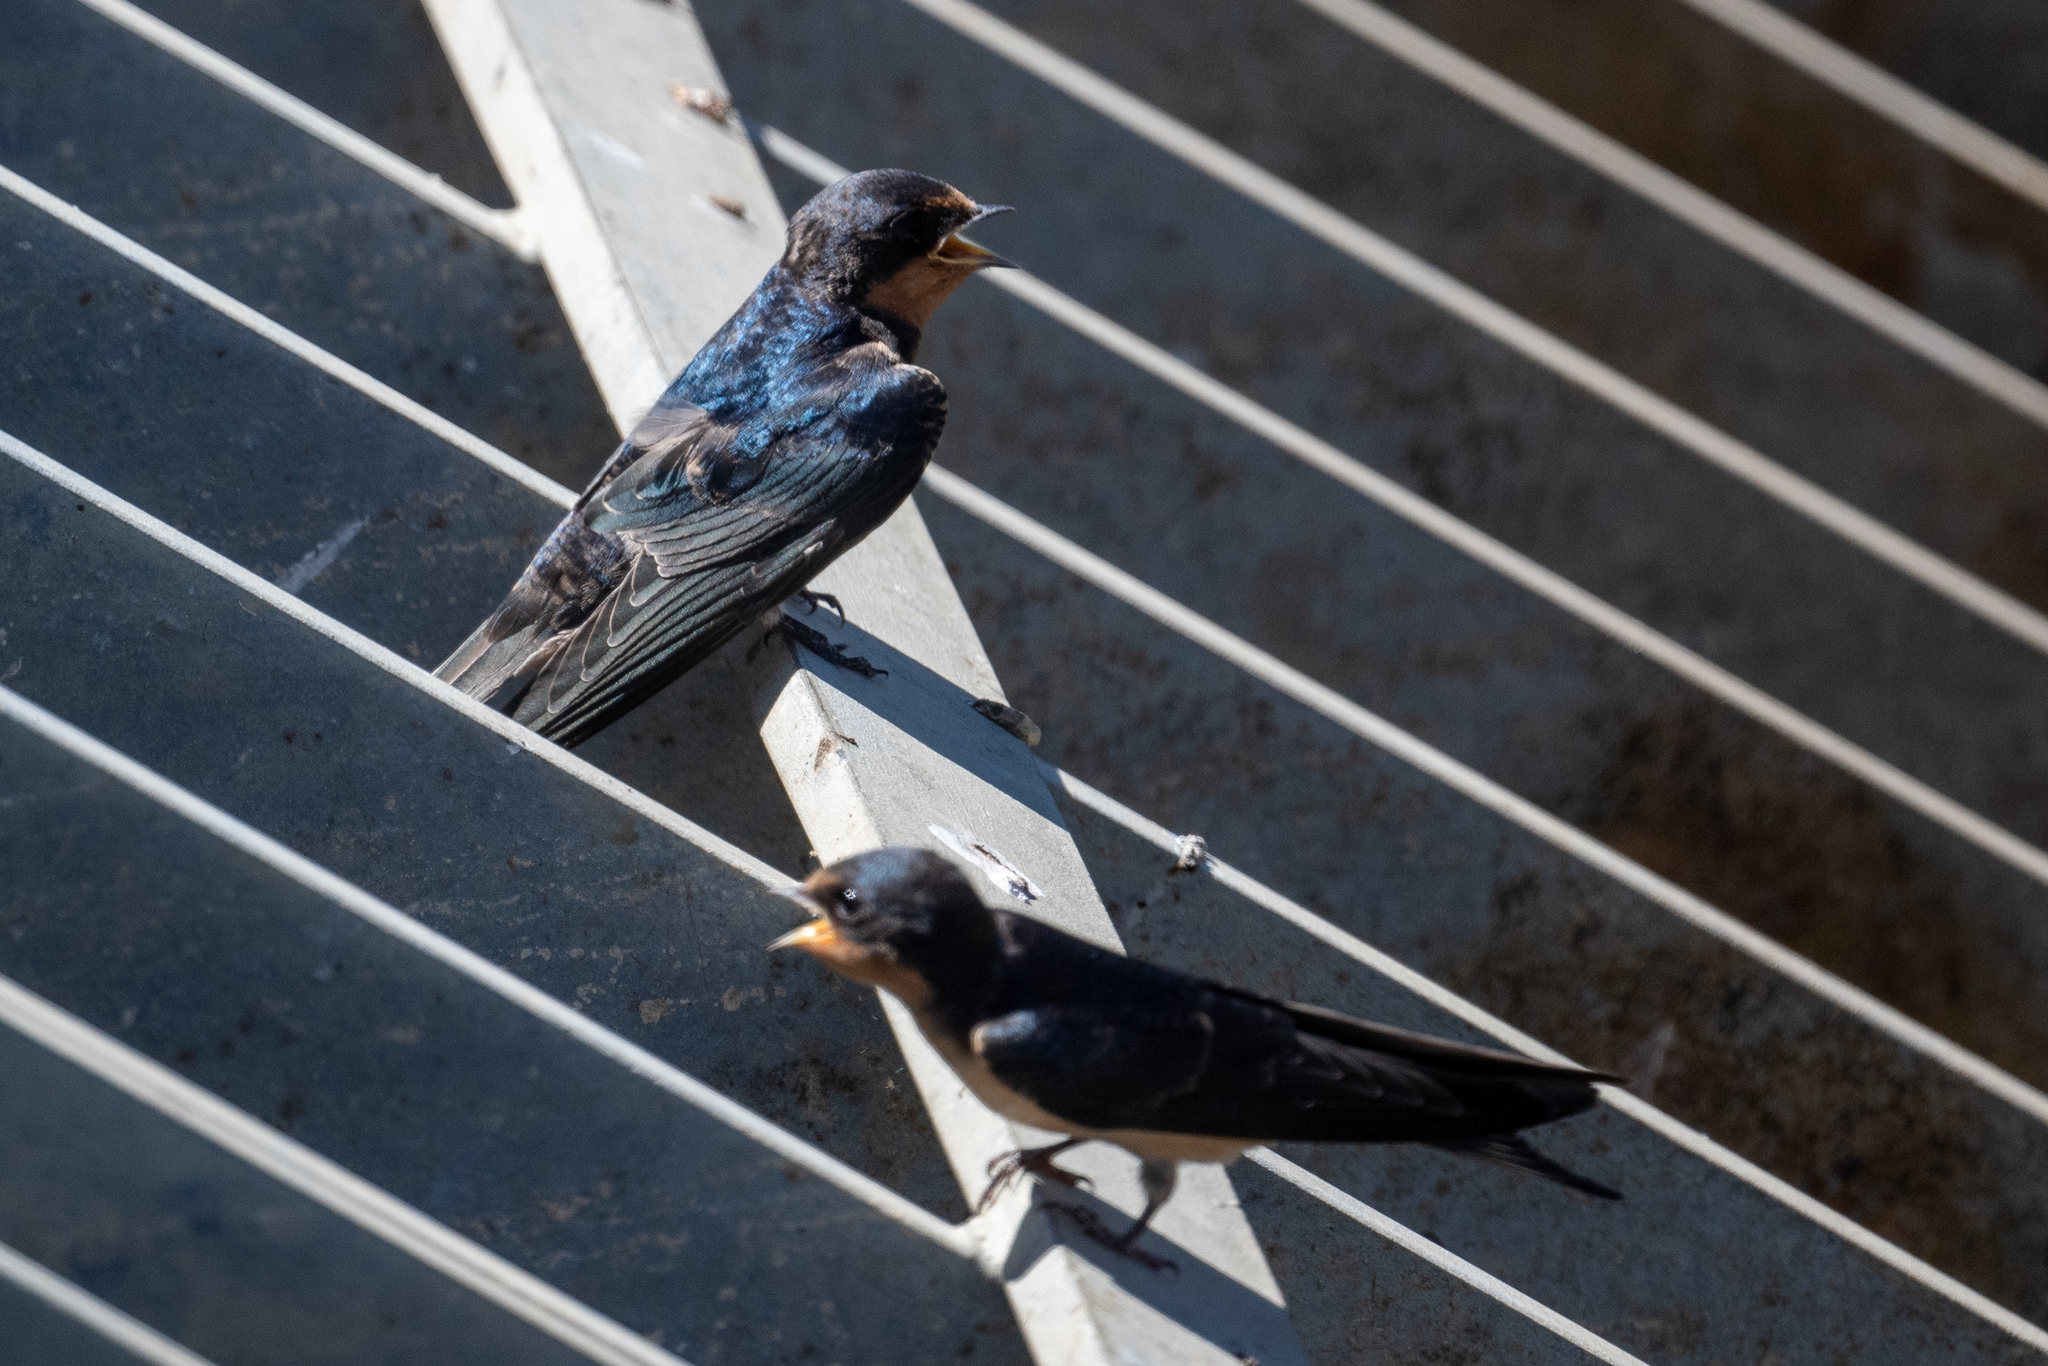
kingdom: Animalia
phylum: Chordata
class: Aves
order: Passeriformes
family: Hirundinidae
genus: Hirundo
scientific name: Hirundo rustica
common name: Barn swallow
